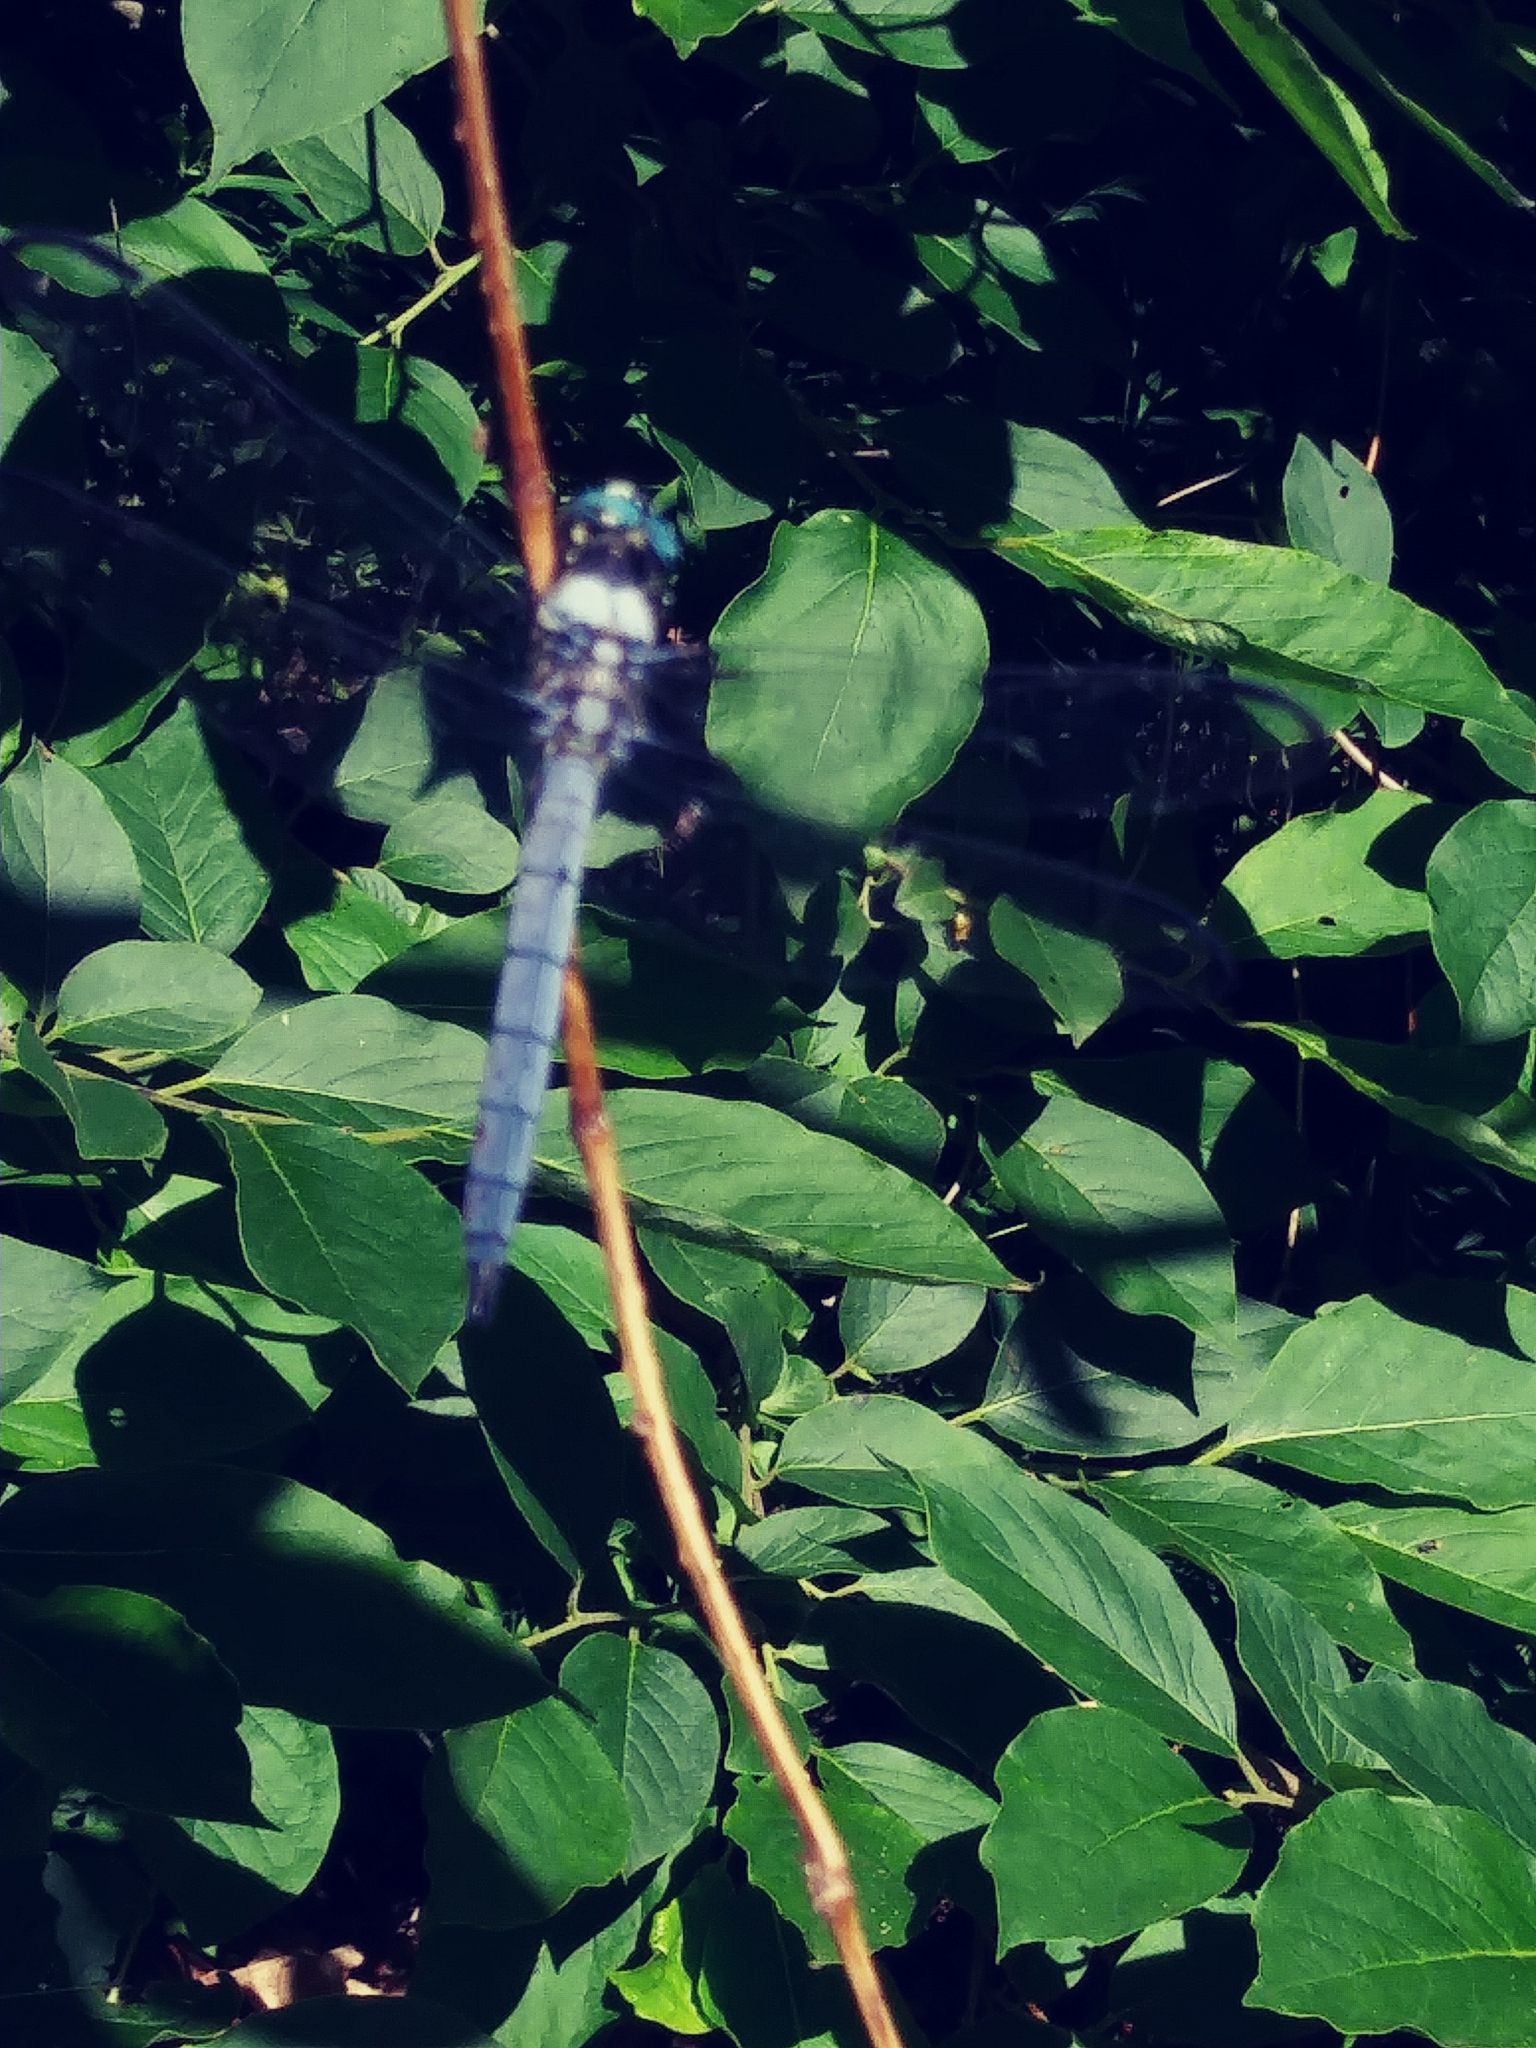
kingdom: Animalia
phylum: Arthropoda
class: Insecta
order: Odonata
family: Libellulidae
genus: Libellula
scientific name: Libellula vibrans
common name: Great blue skimmer
